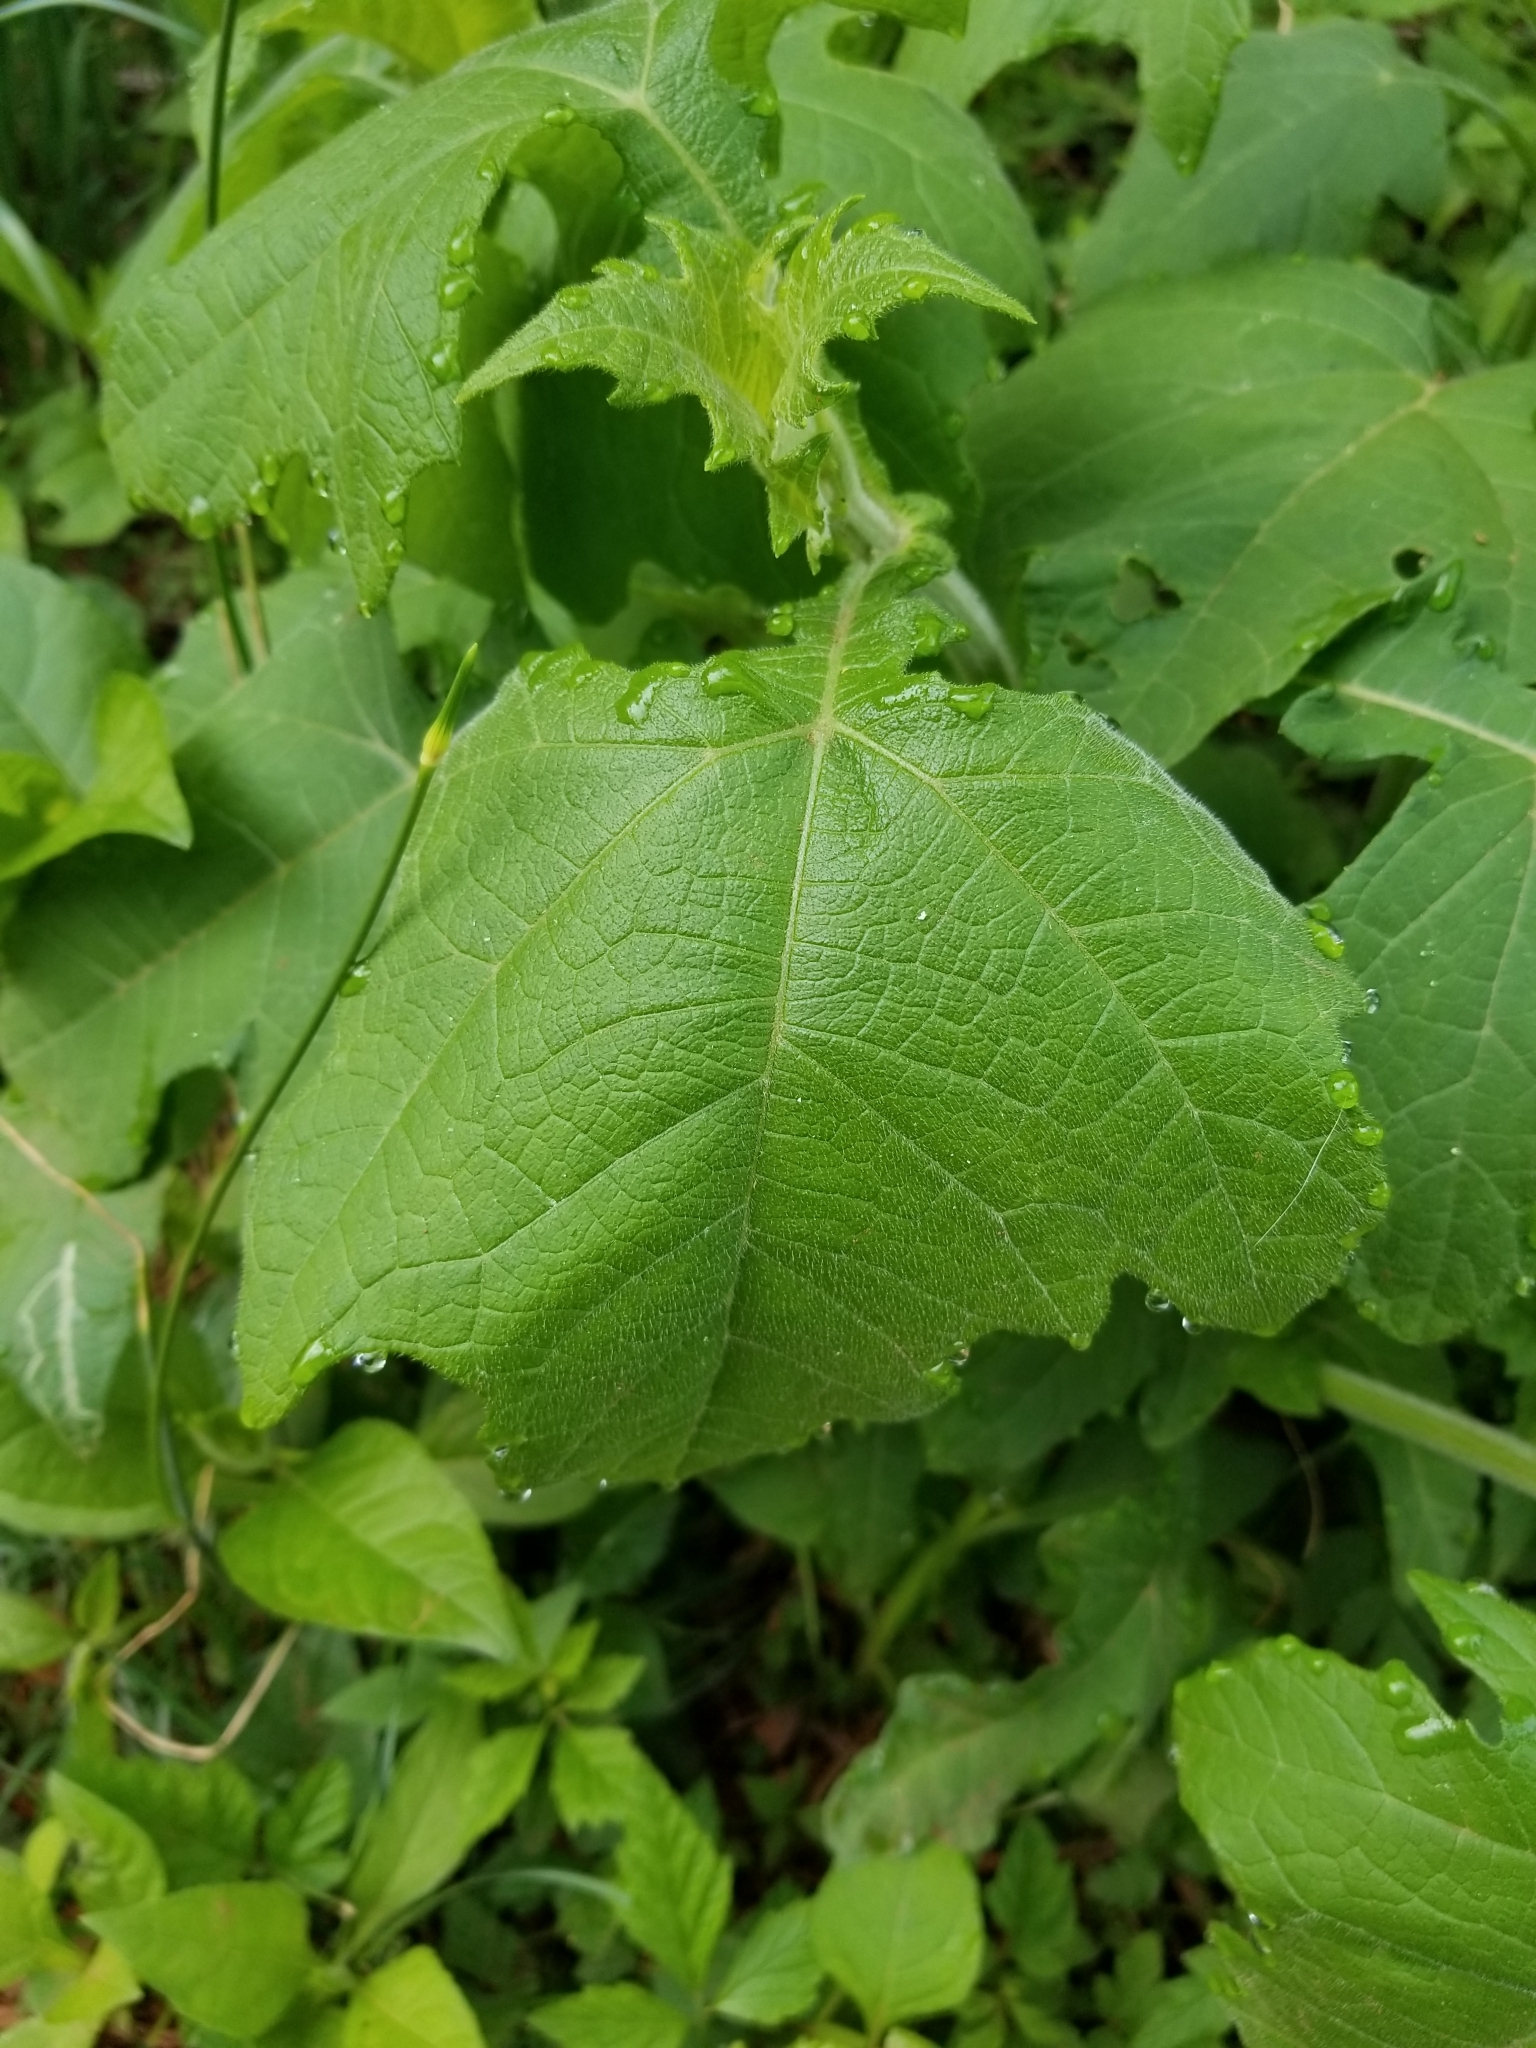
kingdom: Plantae
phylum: Tracheophyta
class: Magnoliopsida
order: Asterales
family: Asteraceae
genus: Smallanthus
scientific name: Smallanthus uvedalia
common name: Bear's-foot
